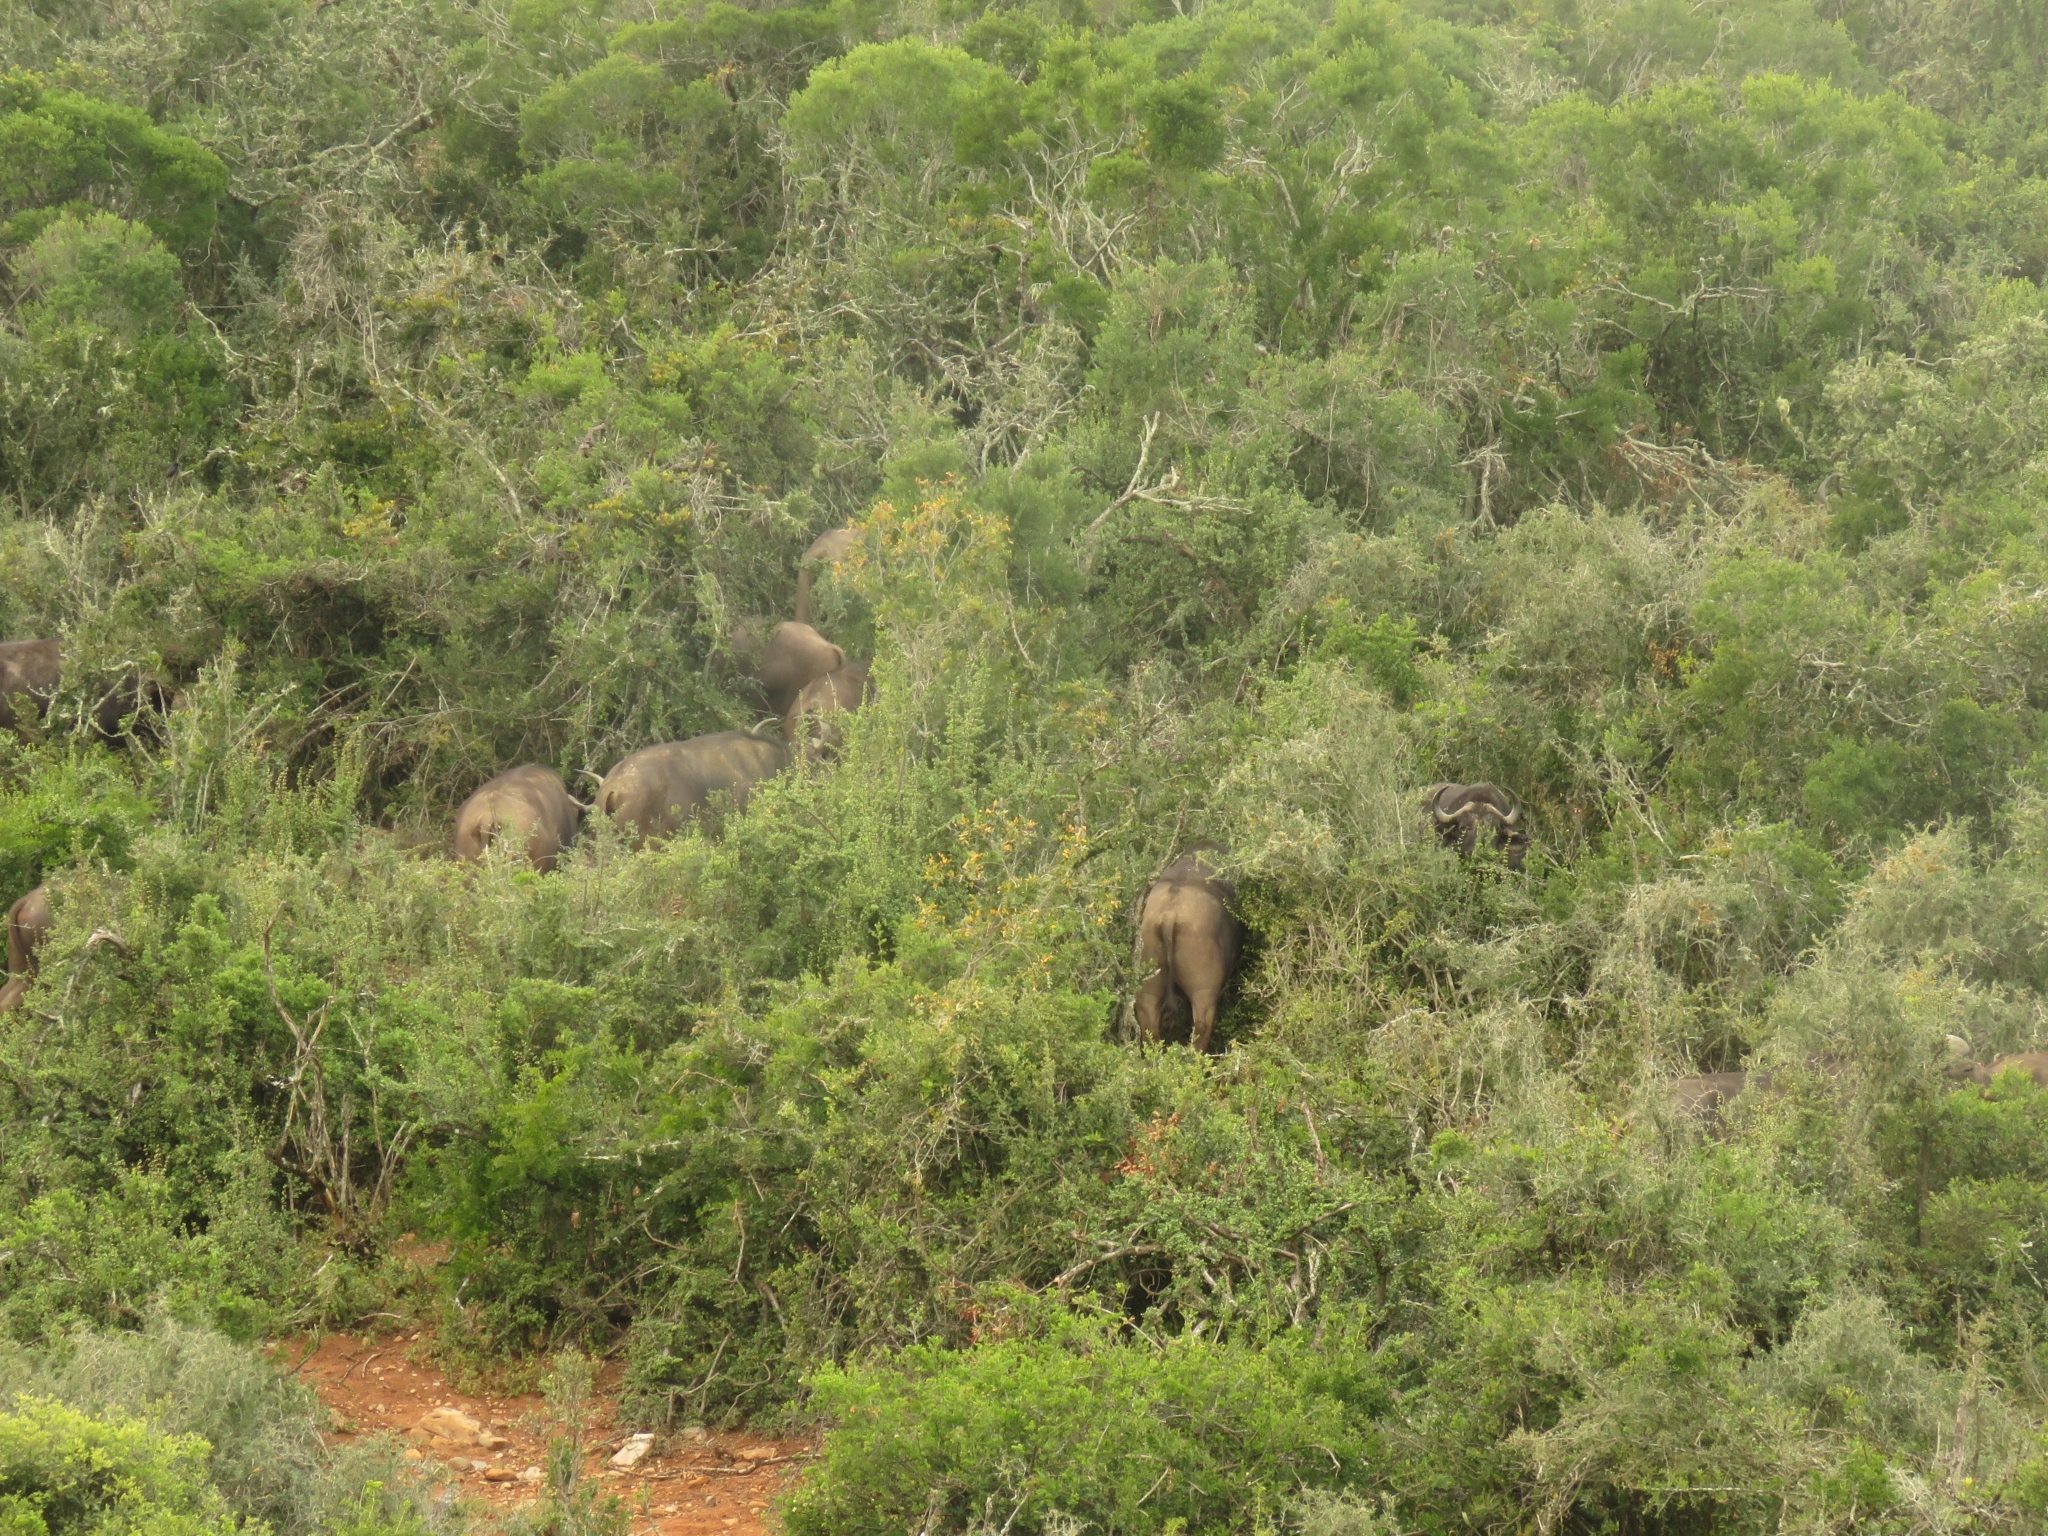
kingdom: Animalia
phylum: Chordata
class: Mammalia
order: Artiodactyla
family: Bovidae
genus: Syncerus
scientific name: Syncerus caffer
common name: African buffalo
